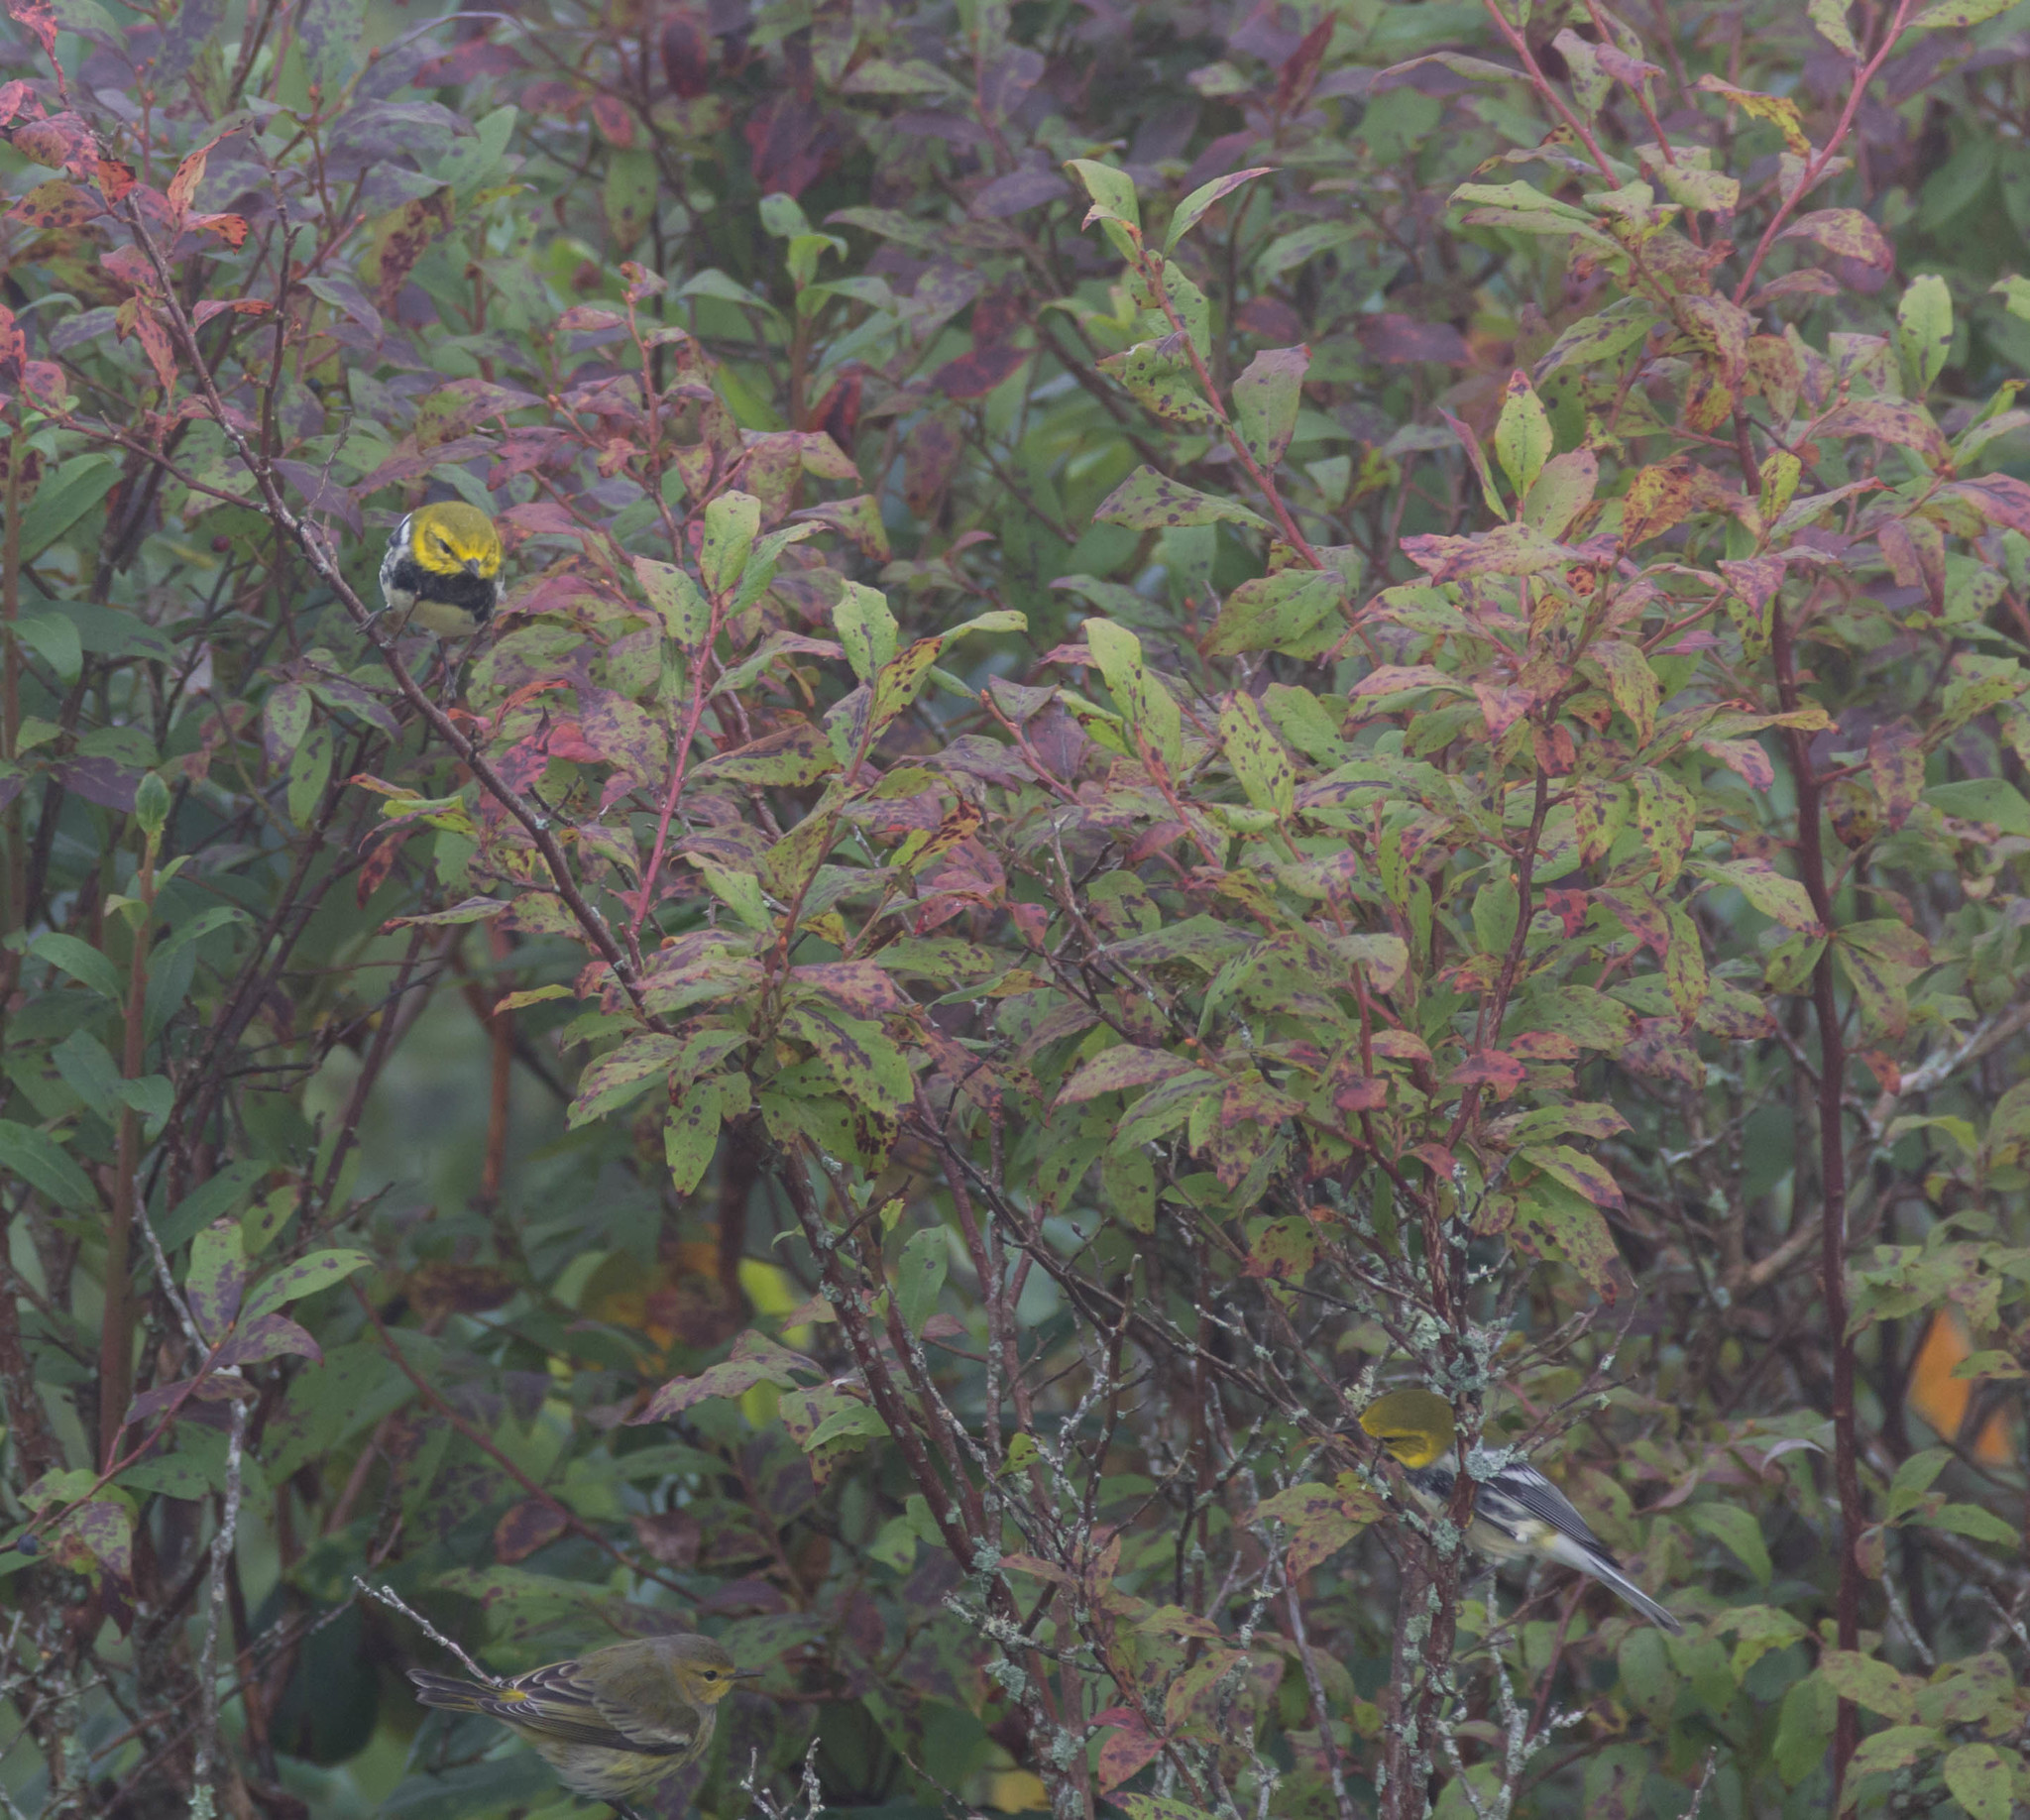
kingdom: Animalia
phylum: Chordata
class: Aves
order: Passeriformes
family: Parulidae
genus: Setophaga
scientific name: Setophaga virens
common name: Black-throated green warbler
